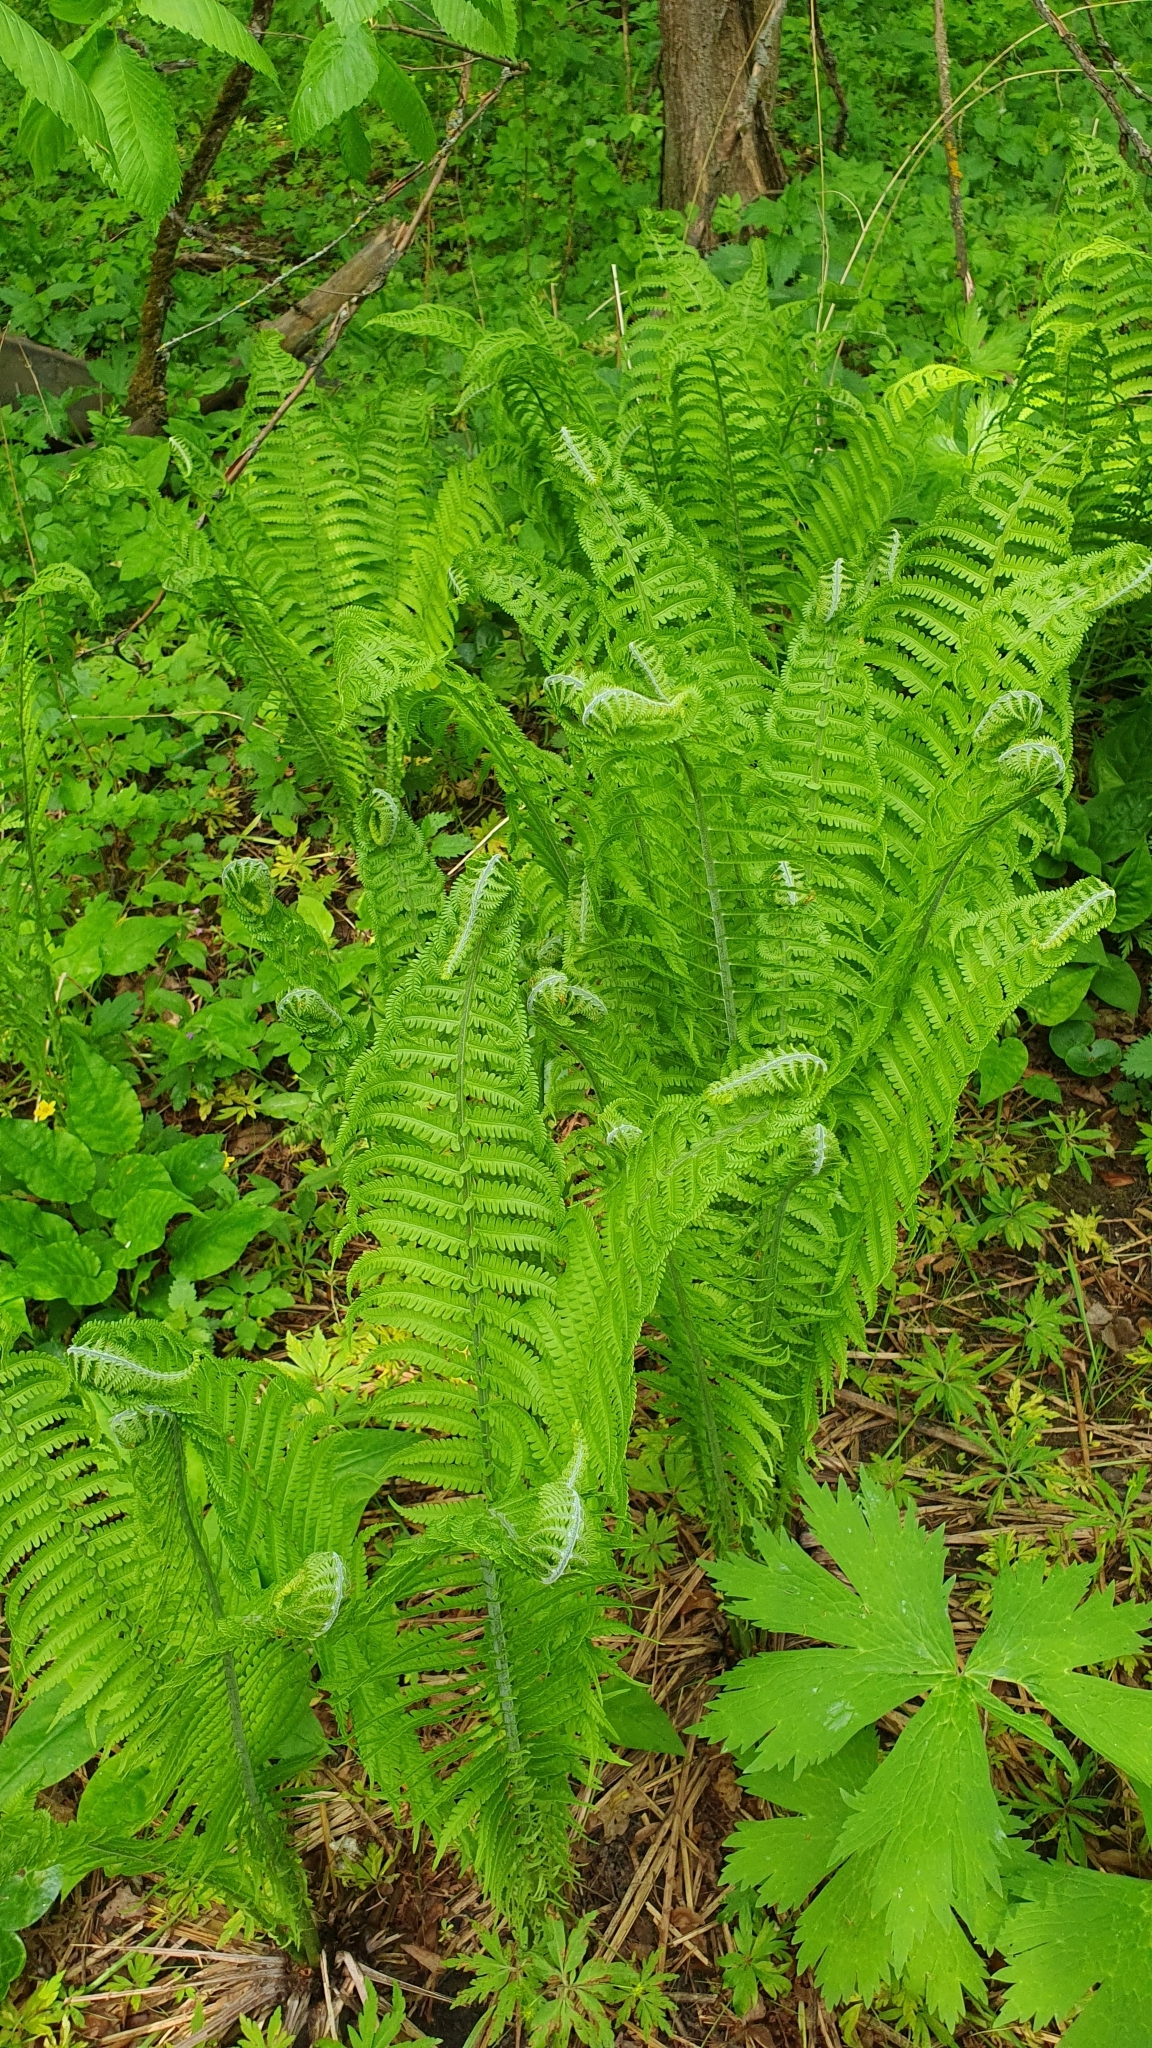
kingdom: Plantae
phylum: Tracheophyta
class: Polypodiopsida
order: Polypodiales
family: Onocleaceae
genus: Matteuccia
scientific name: Matteuccia struthiopteris
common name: Ostrich fern
